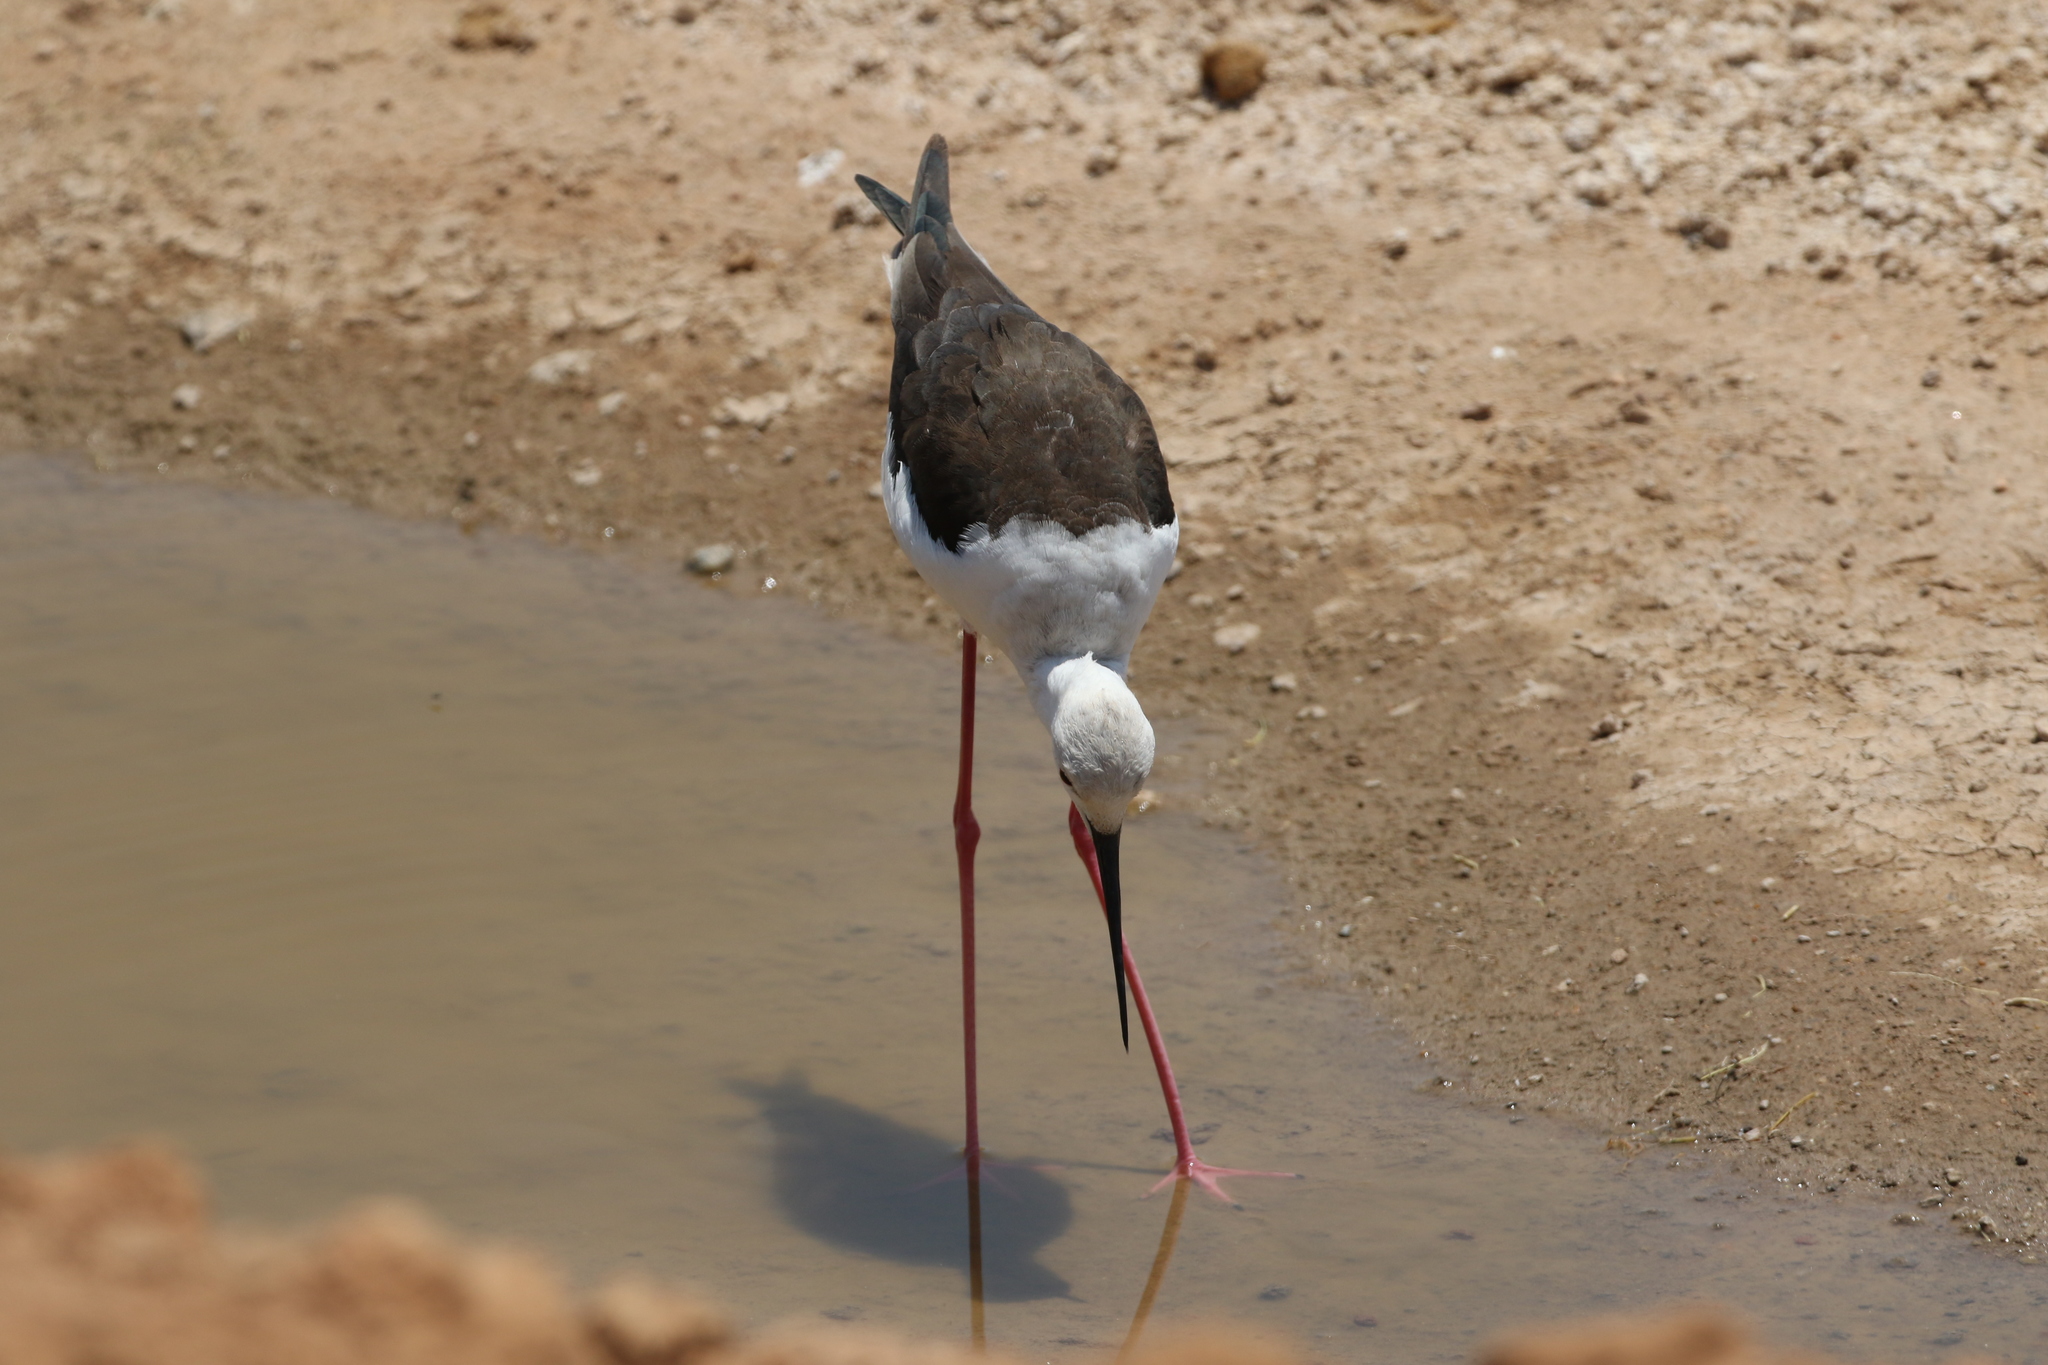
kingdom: Animalia
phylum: Chordata
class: Aves
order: Charadriiformes
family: Recurvirostridae
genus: Himantopus
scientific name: Himantopus himantopus
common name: Black-winged stilt
